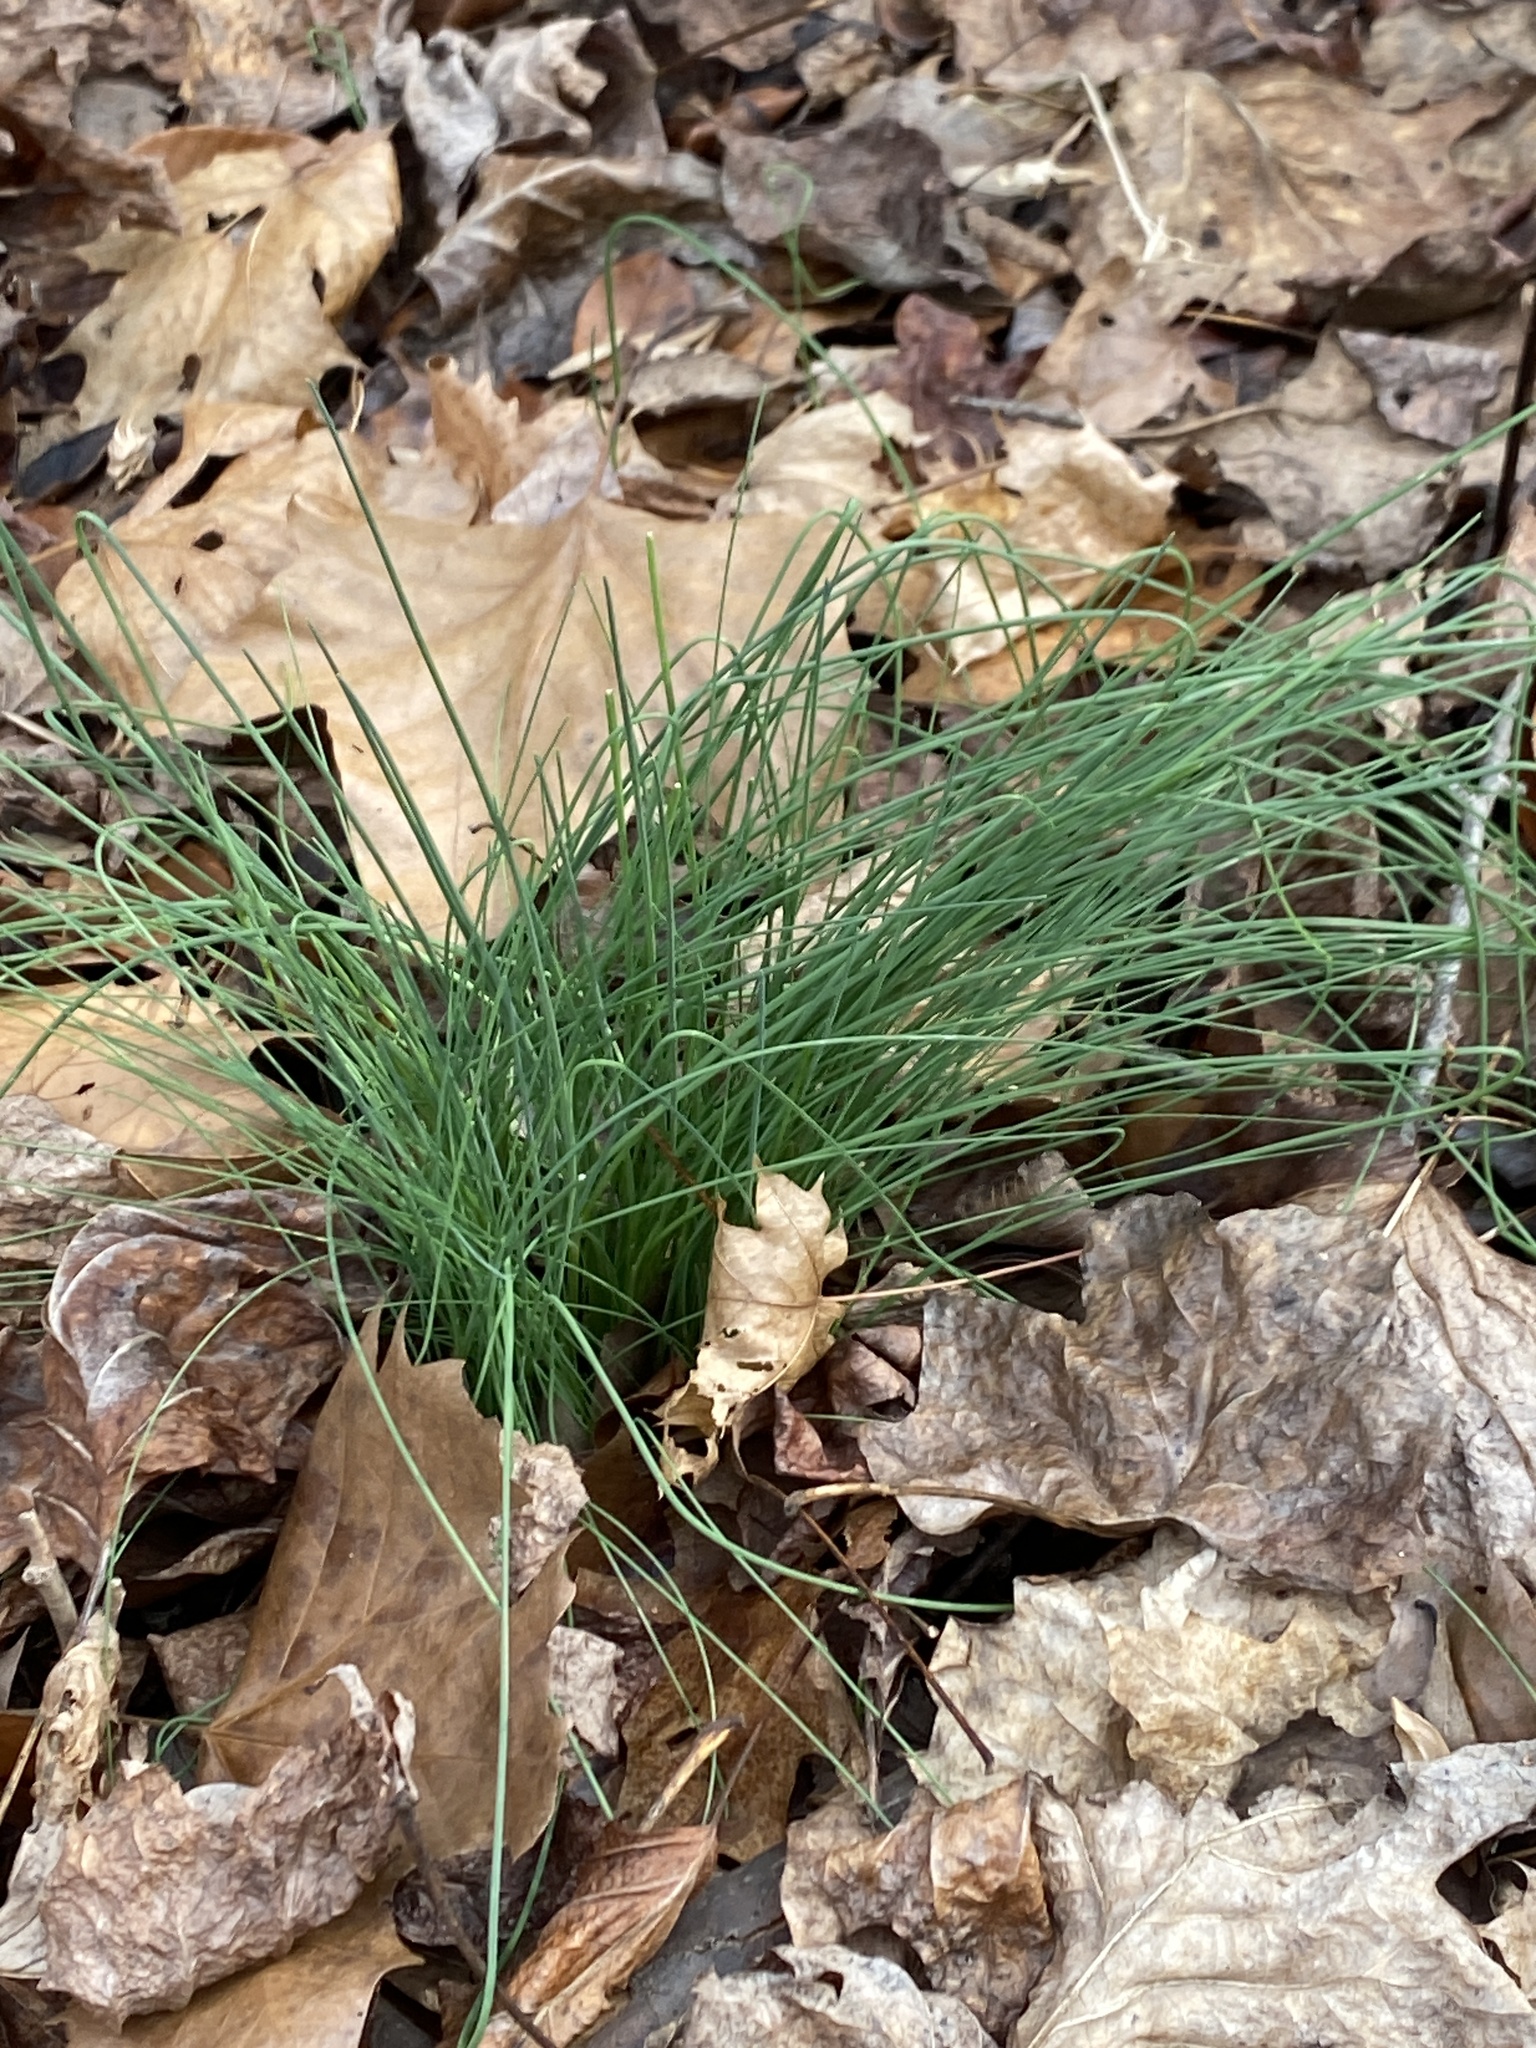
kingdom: Plantae
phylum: Tracheophyta
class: Liliopsida
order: Asparagales
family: Amaryllidaceae
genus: Allium
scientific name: Allium vineale
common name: Crow garlic
